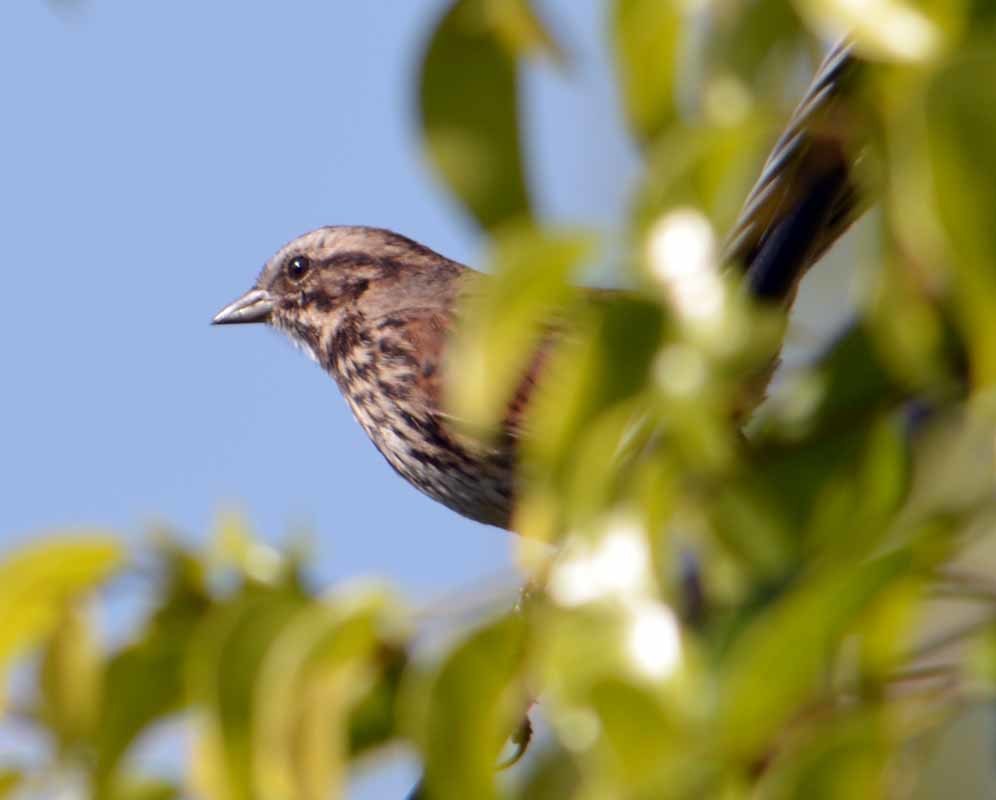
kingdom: Animalia
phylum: Chordata
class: Aves
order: Passeriformes
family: Passerellidae
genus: Melospiza
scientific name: Melospiza melodia
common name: Song sparrow
